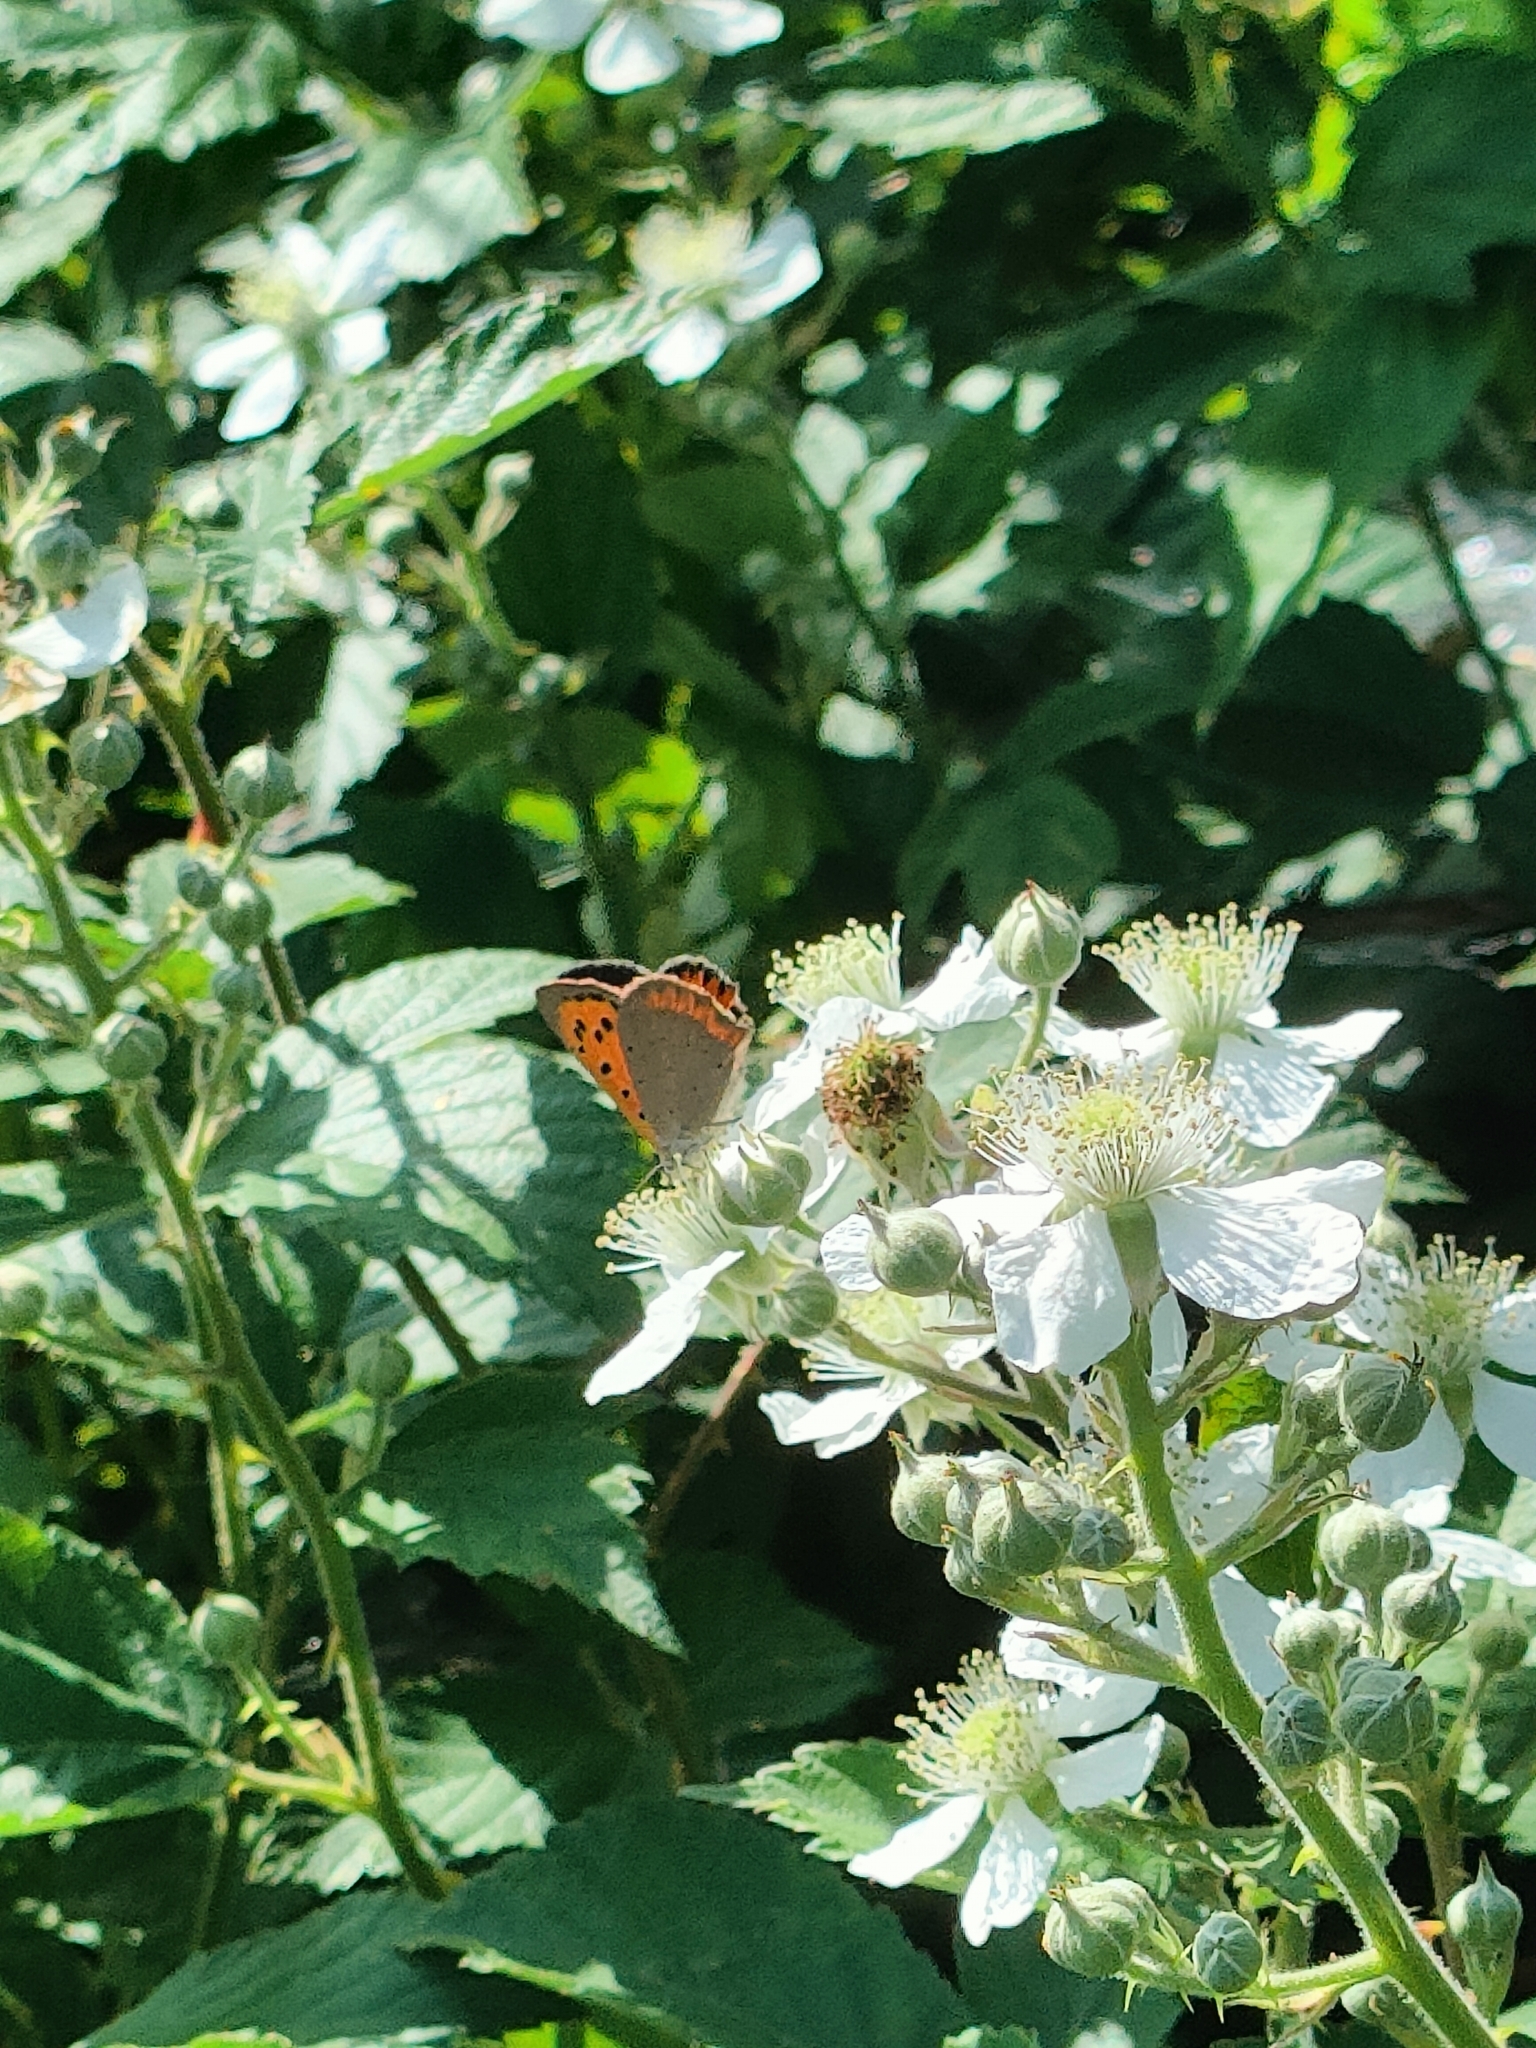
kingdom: Animalia
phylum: Arthropoda
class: Insecta
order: Lepidoptera
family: Lycaenidae
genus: Lycaena
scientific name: Lycaena phlaeas
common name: Small copper
